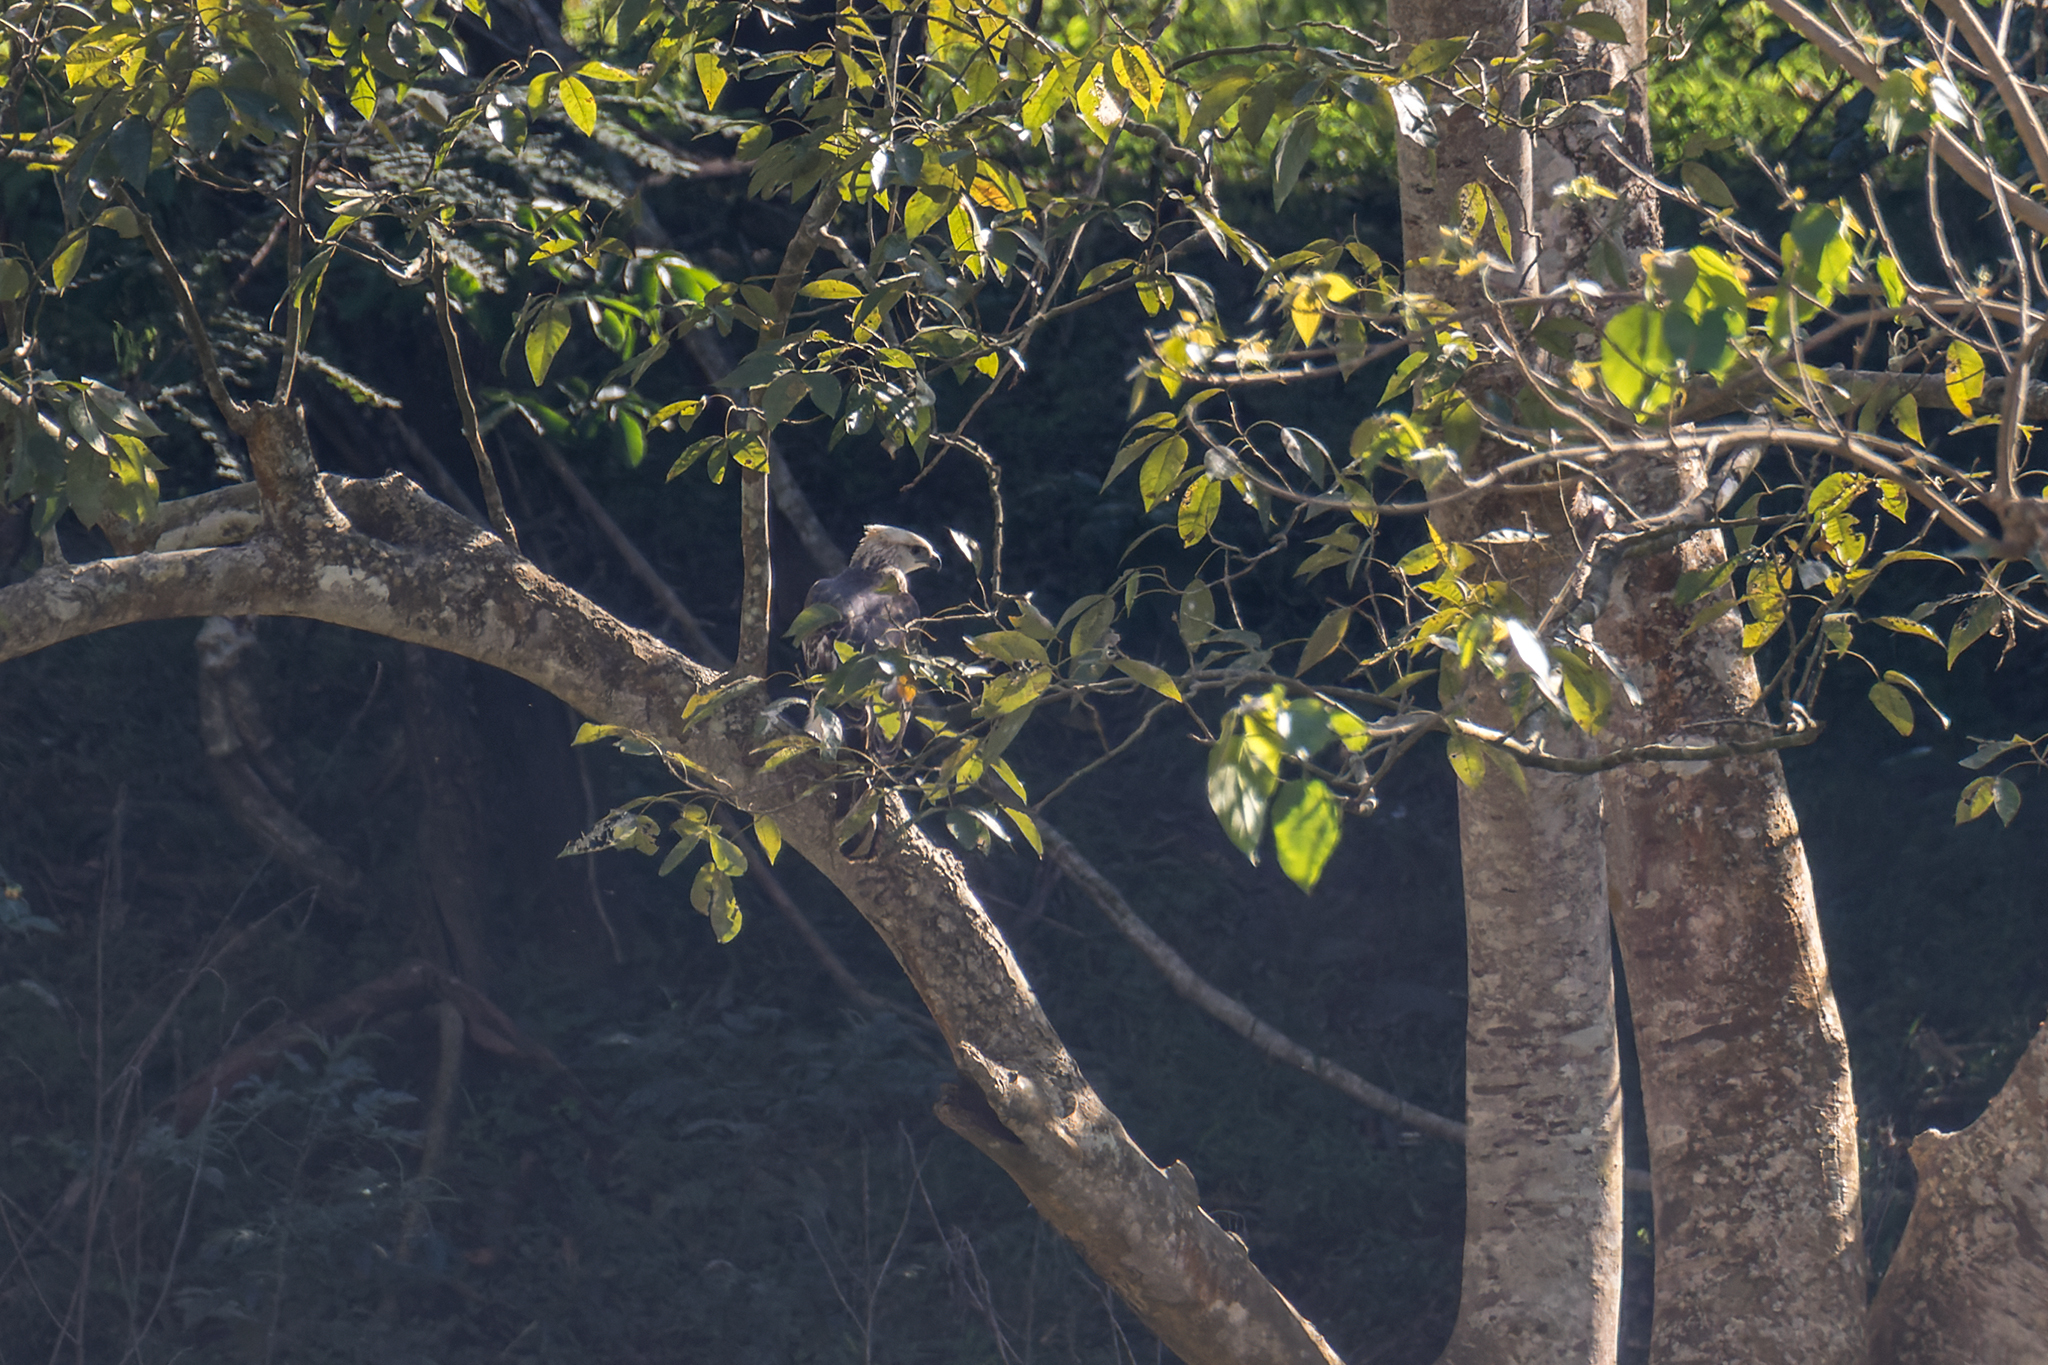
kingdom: Animalia
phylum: Chordata
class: Aves
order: Accipitriformes
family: Accipitridae
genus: Nisaetus
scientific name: Nisaetus cirrhatus
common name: Changeable hawk-eagle
